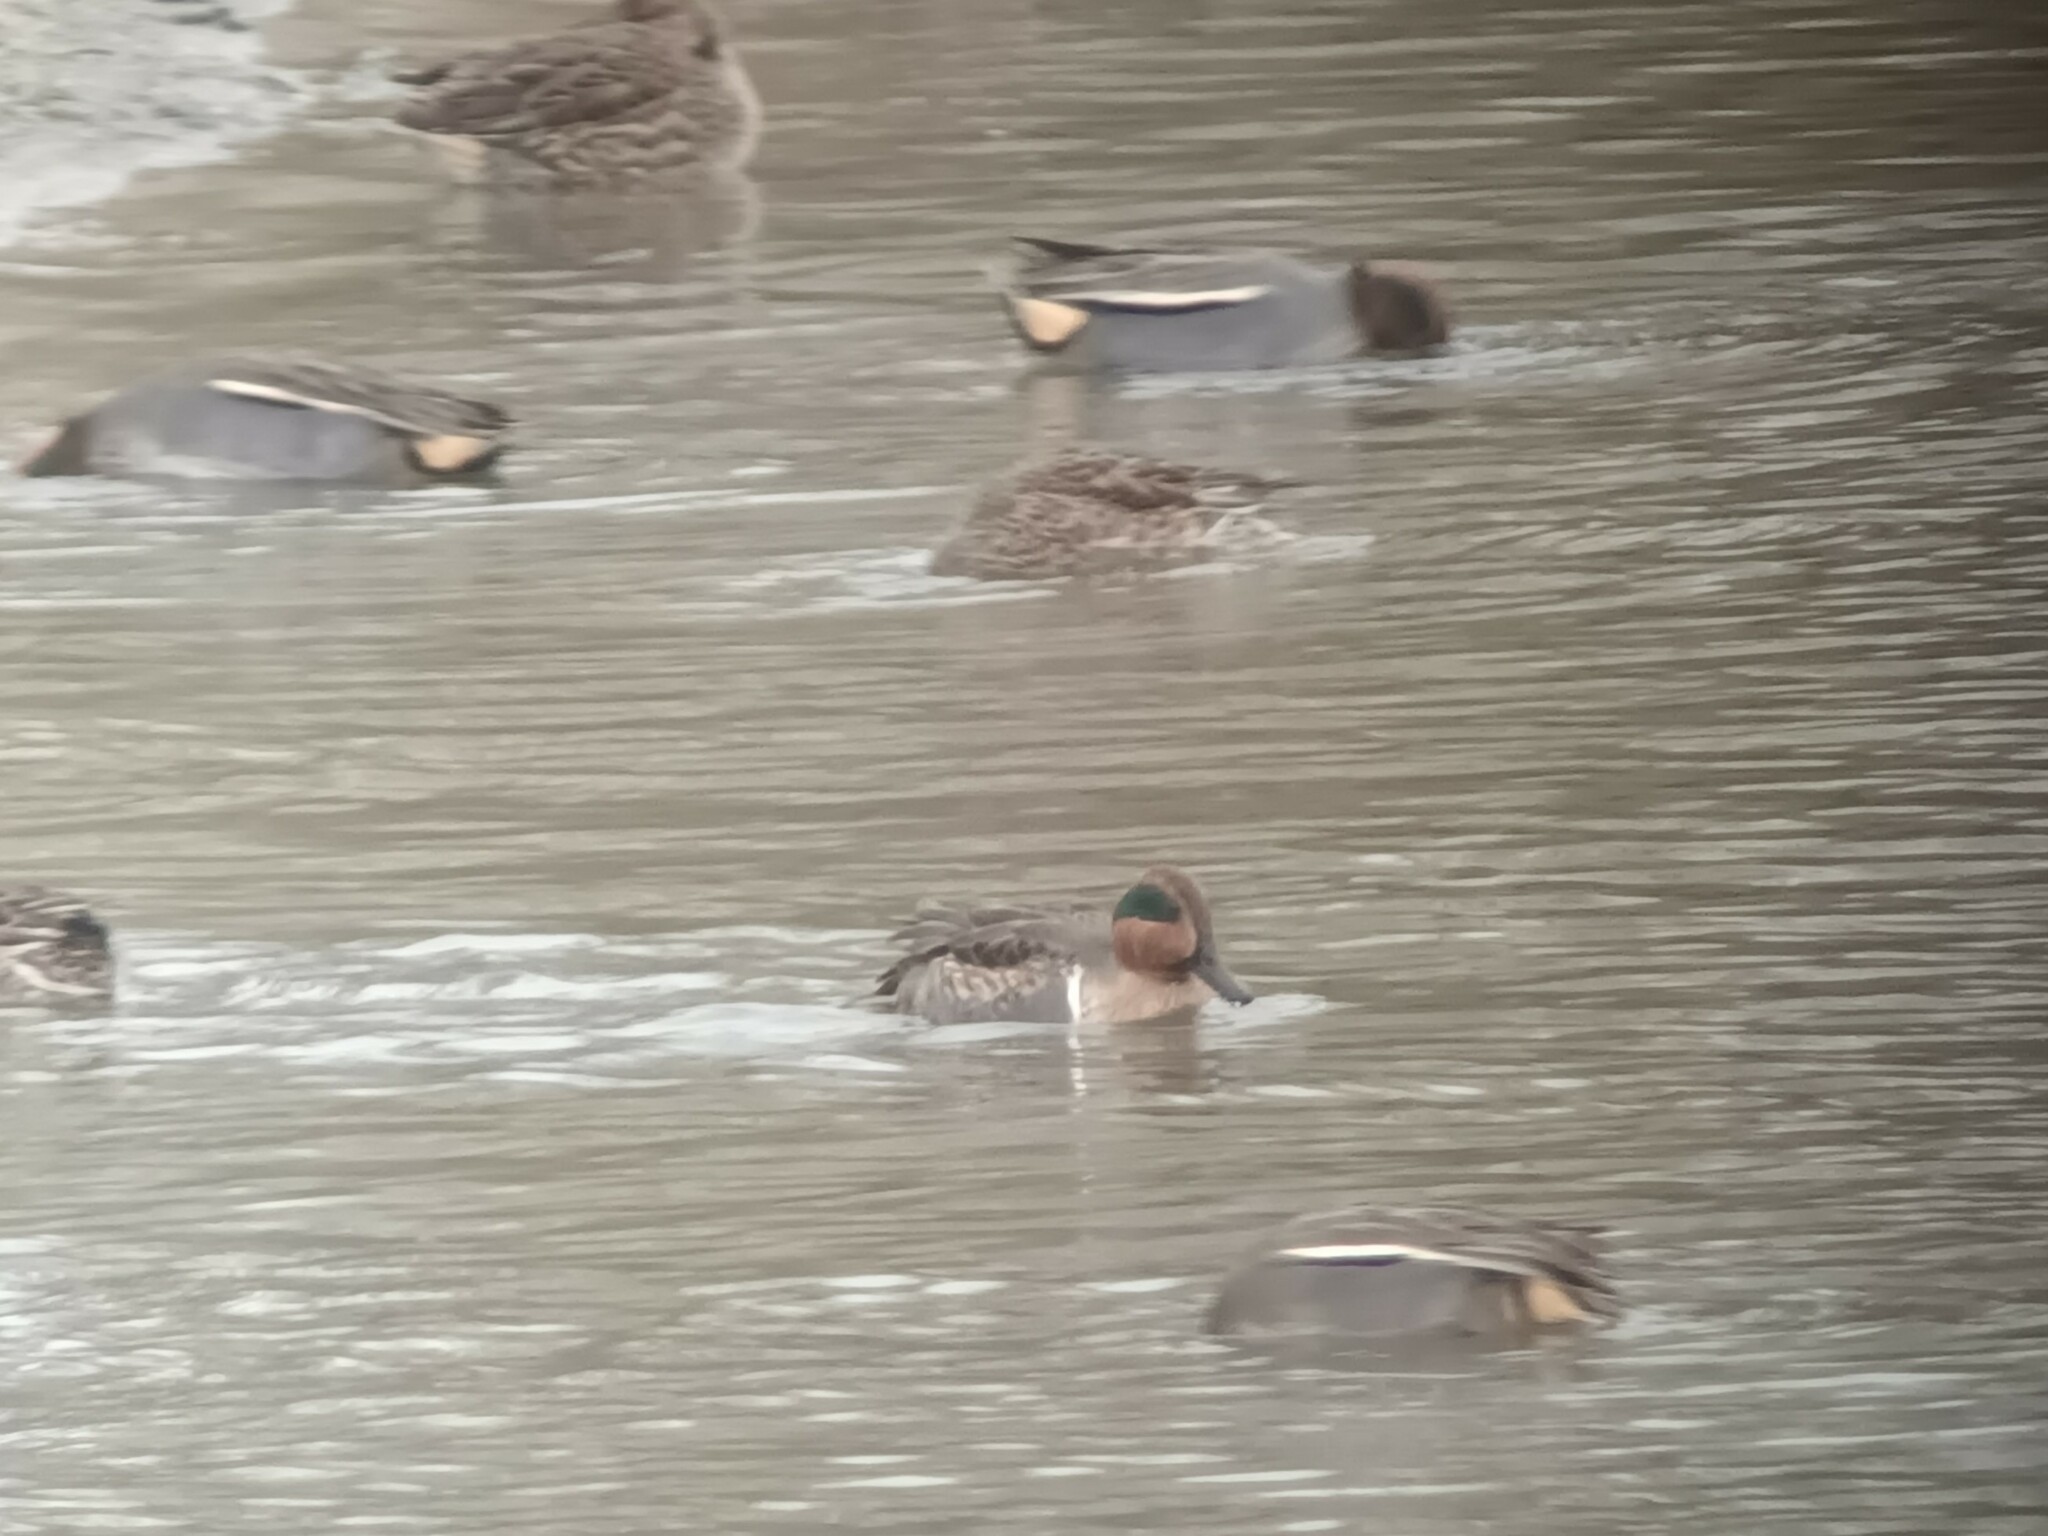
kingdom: Animalia
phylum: Chordata
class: Aves
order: Anseriformes
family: Anatidae
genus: Anas
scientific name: Anas carolinensis
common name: Green-winged teal
